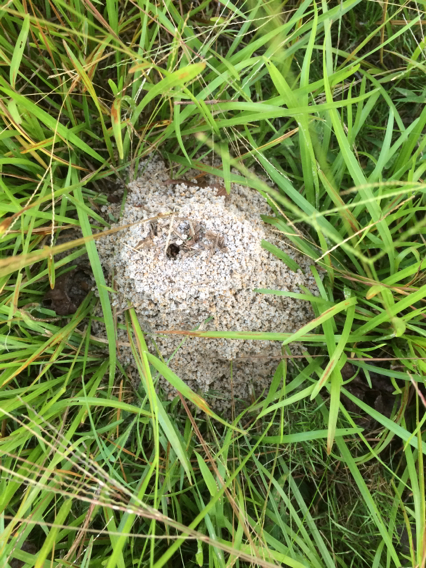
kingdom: Animalia
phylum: Arthropoda
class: Insecta
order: Hymenoptera
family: Formicidae
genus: Atta
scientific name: Atta texana
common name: Texas leafcutting ant
